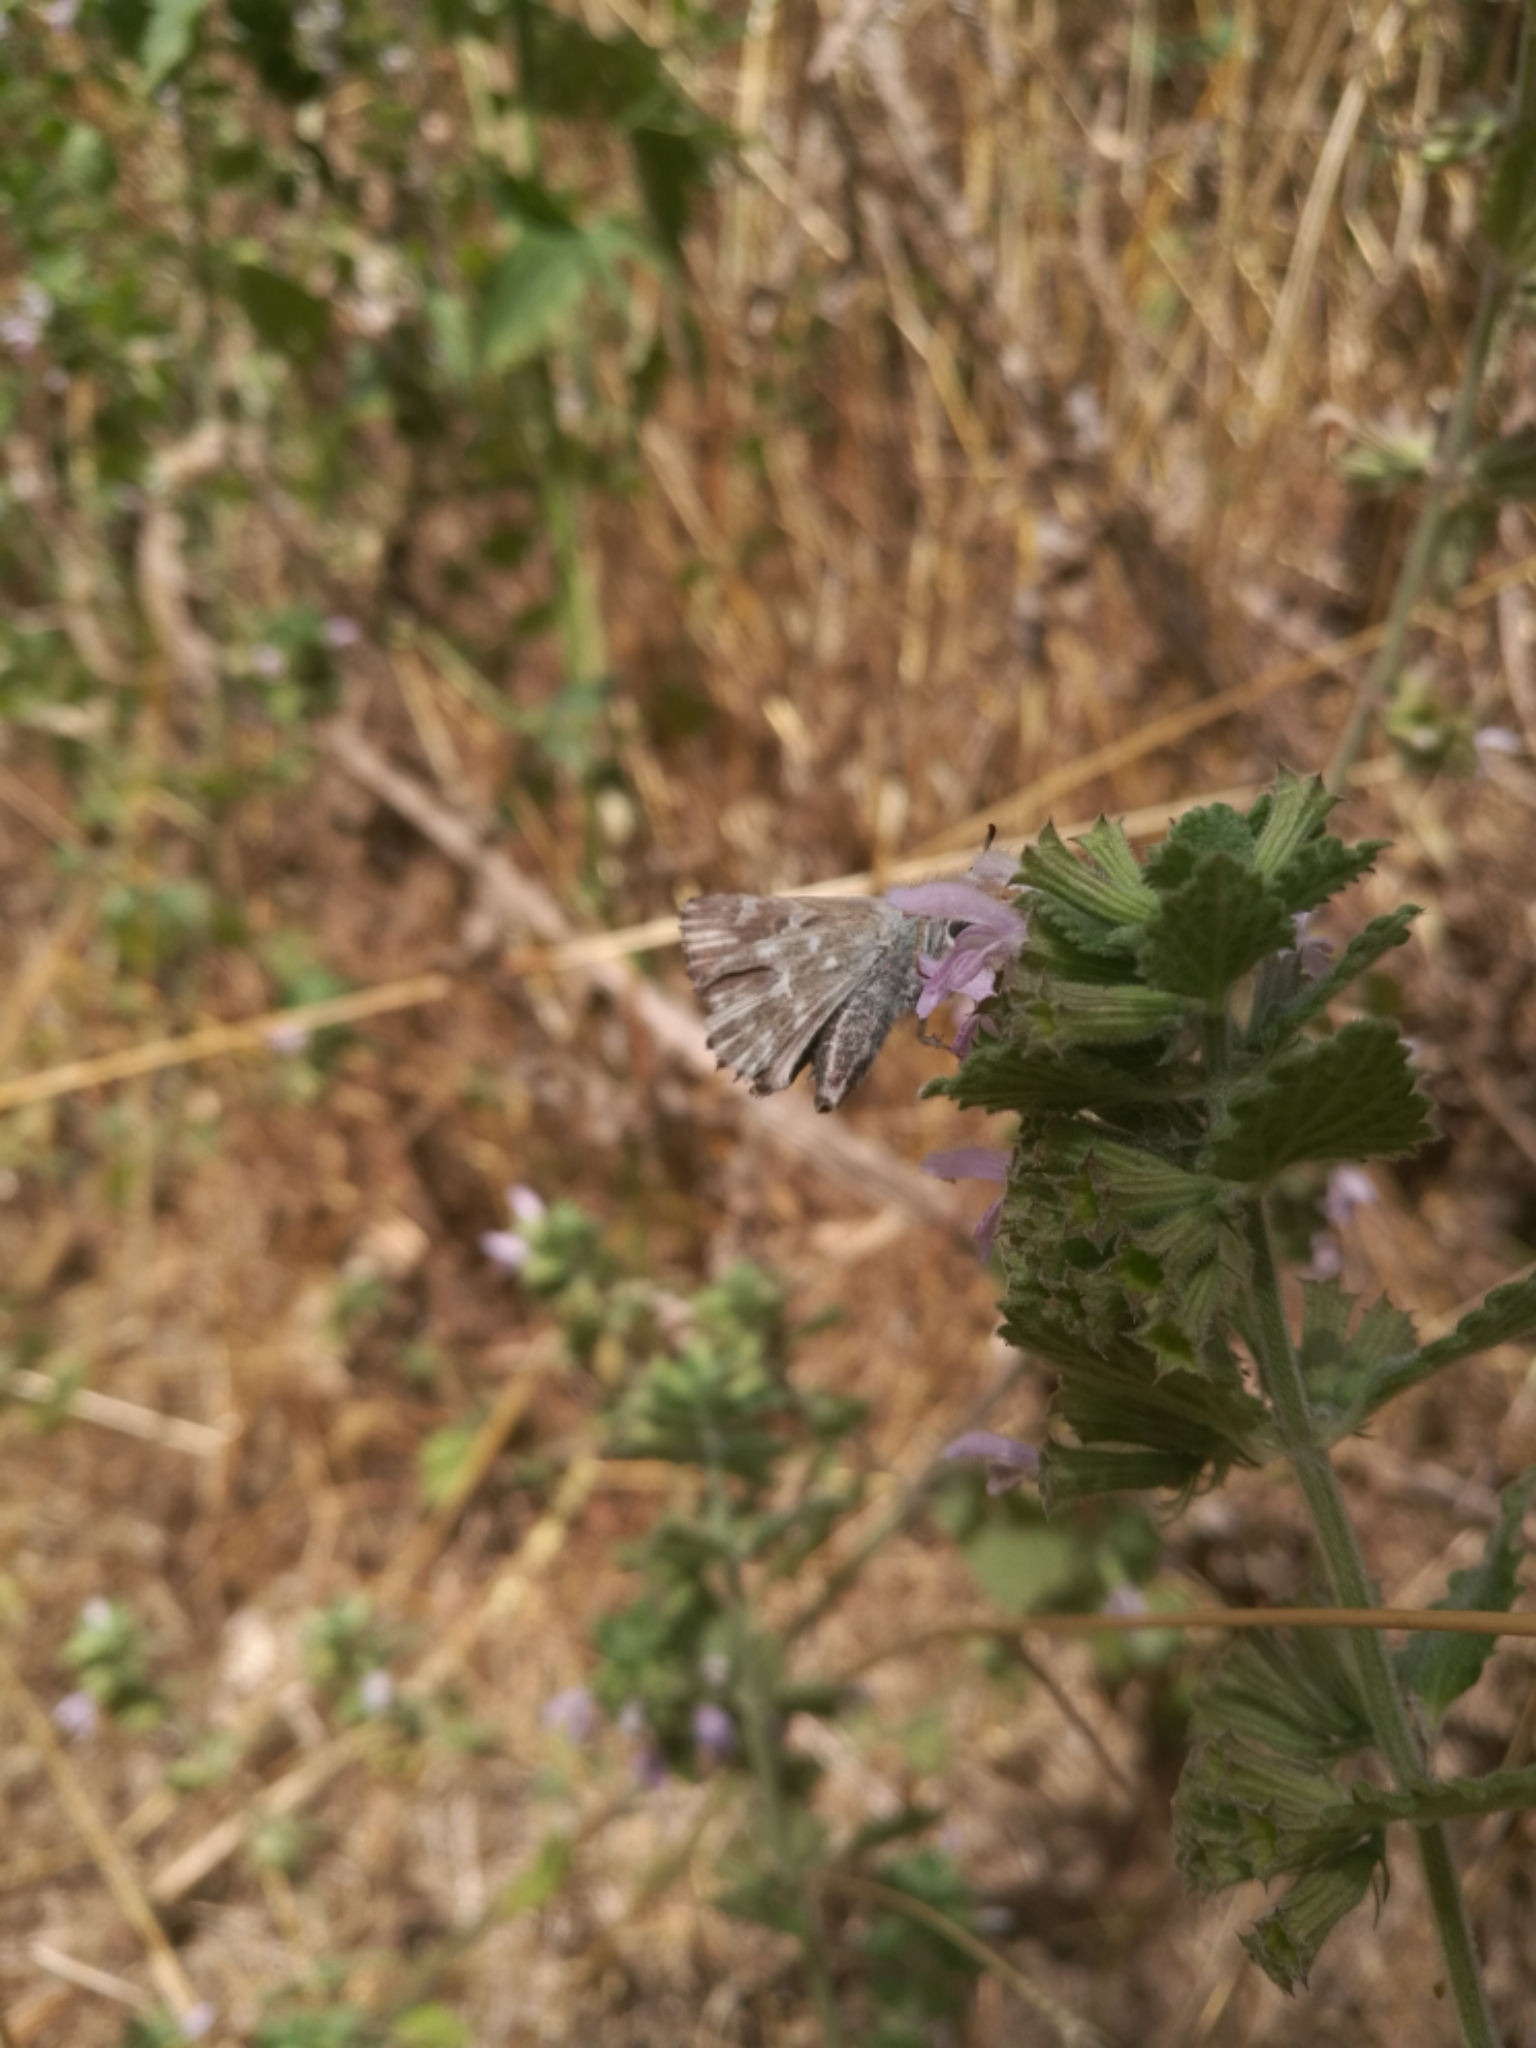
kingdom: Animalia
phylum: Arthropoda
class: Insecta
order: Lepidoptera
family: Hesperiidae
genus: Carcharodus
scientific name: Carcharodus floccifera
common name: Tufted marbled skipper
